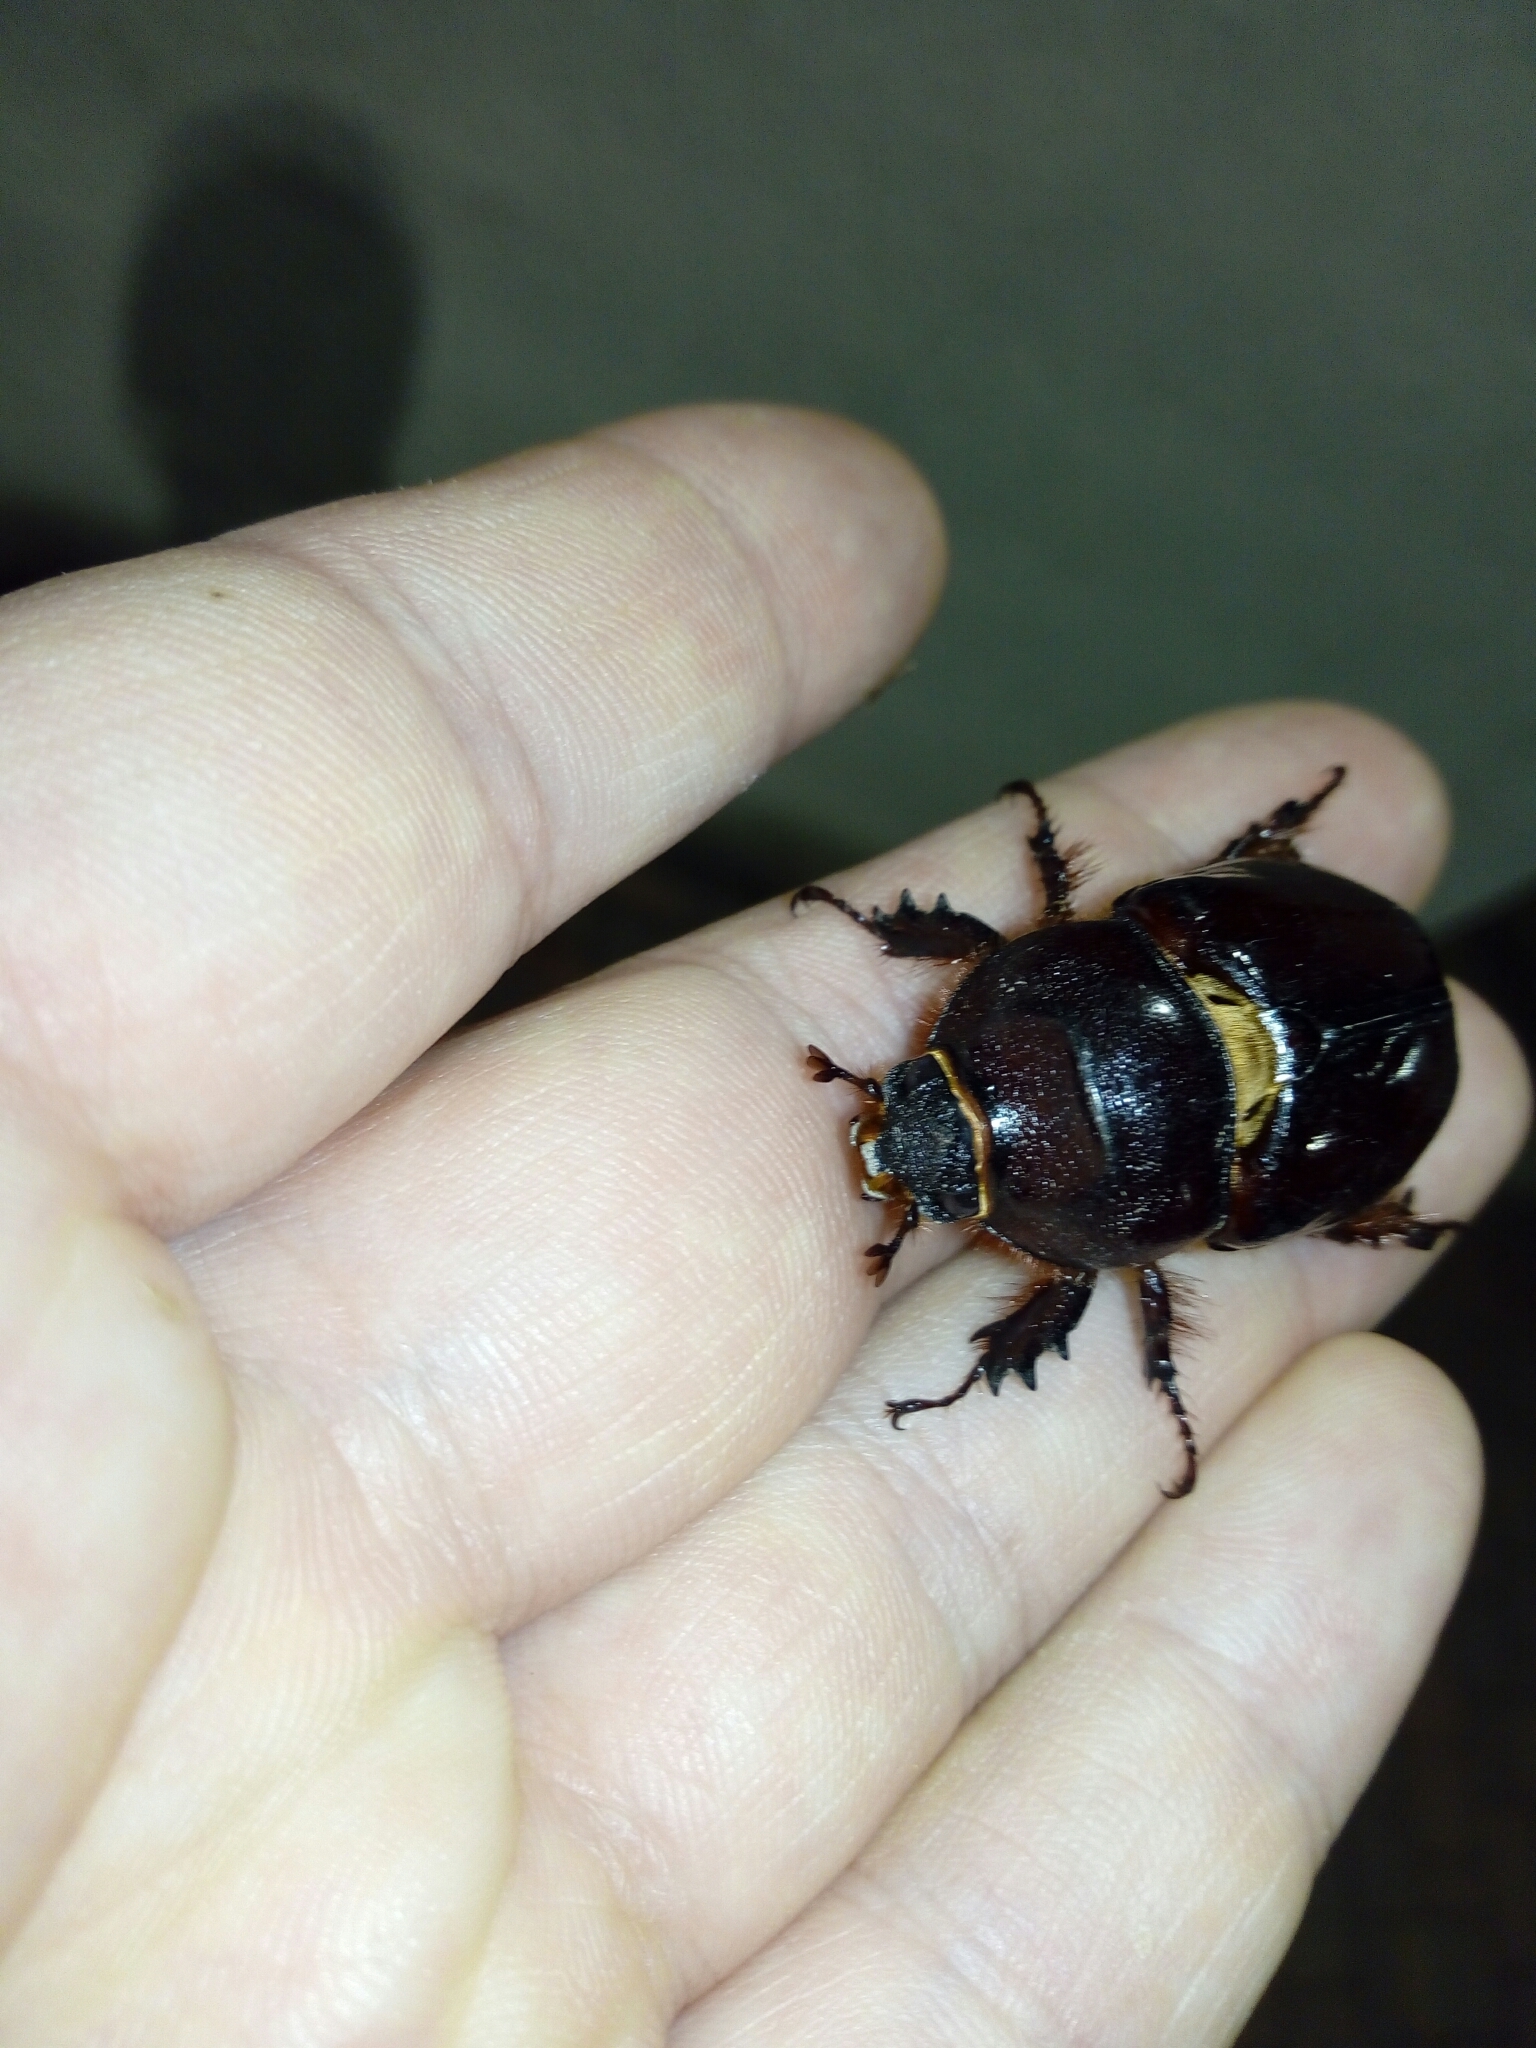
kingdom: Animalia
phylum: Arthropoda
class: Insecta
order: Coleoptera
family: Scarabaeidae
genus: Oryctes
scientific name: Oryctes nasicornis
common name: European rhinoceros beetle
